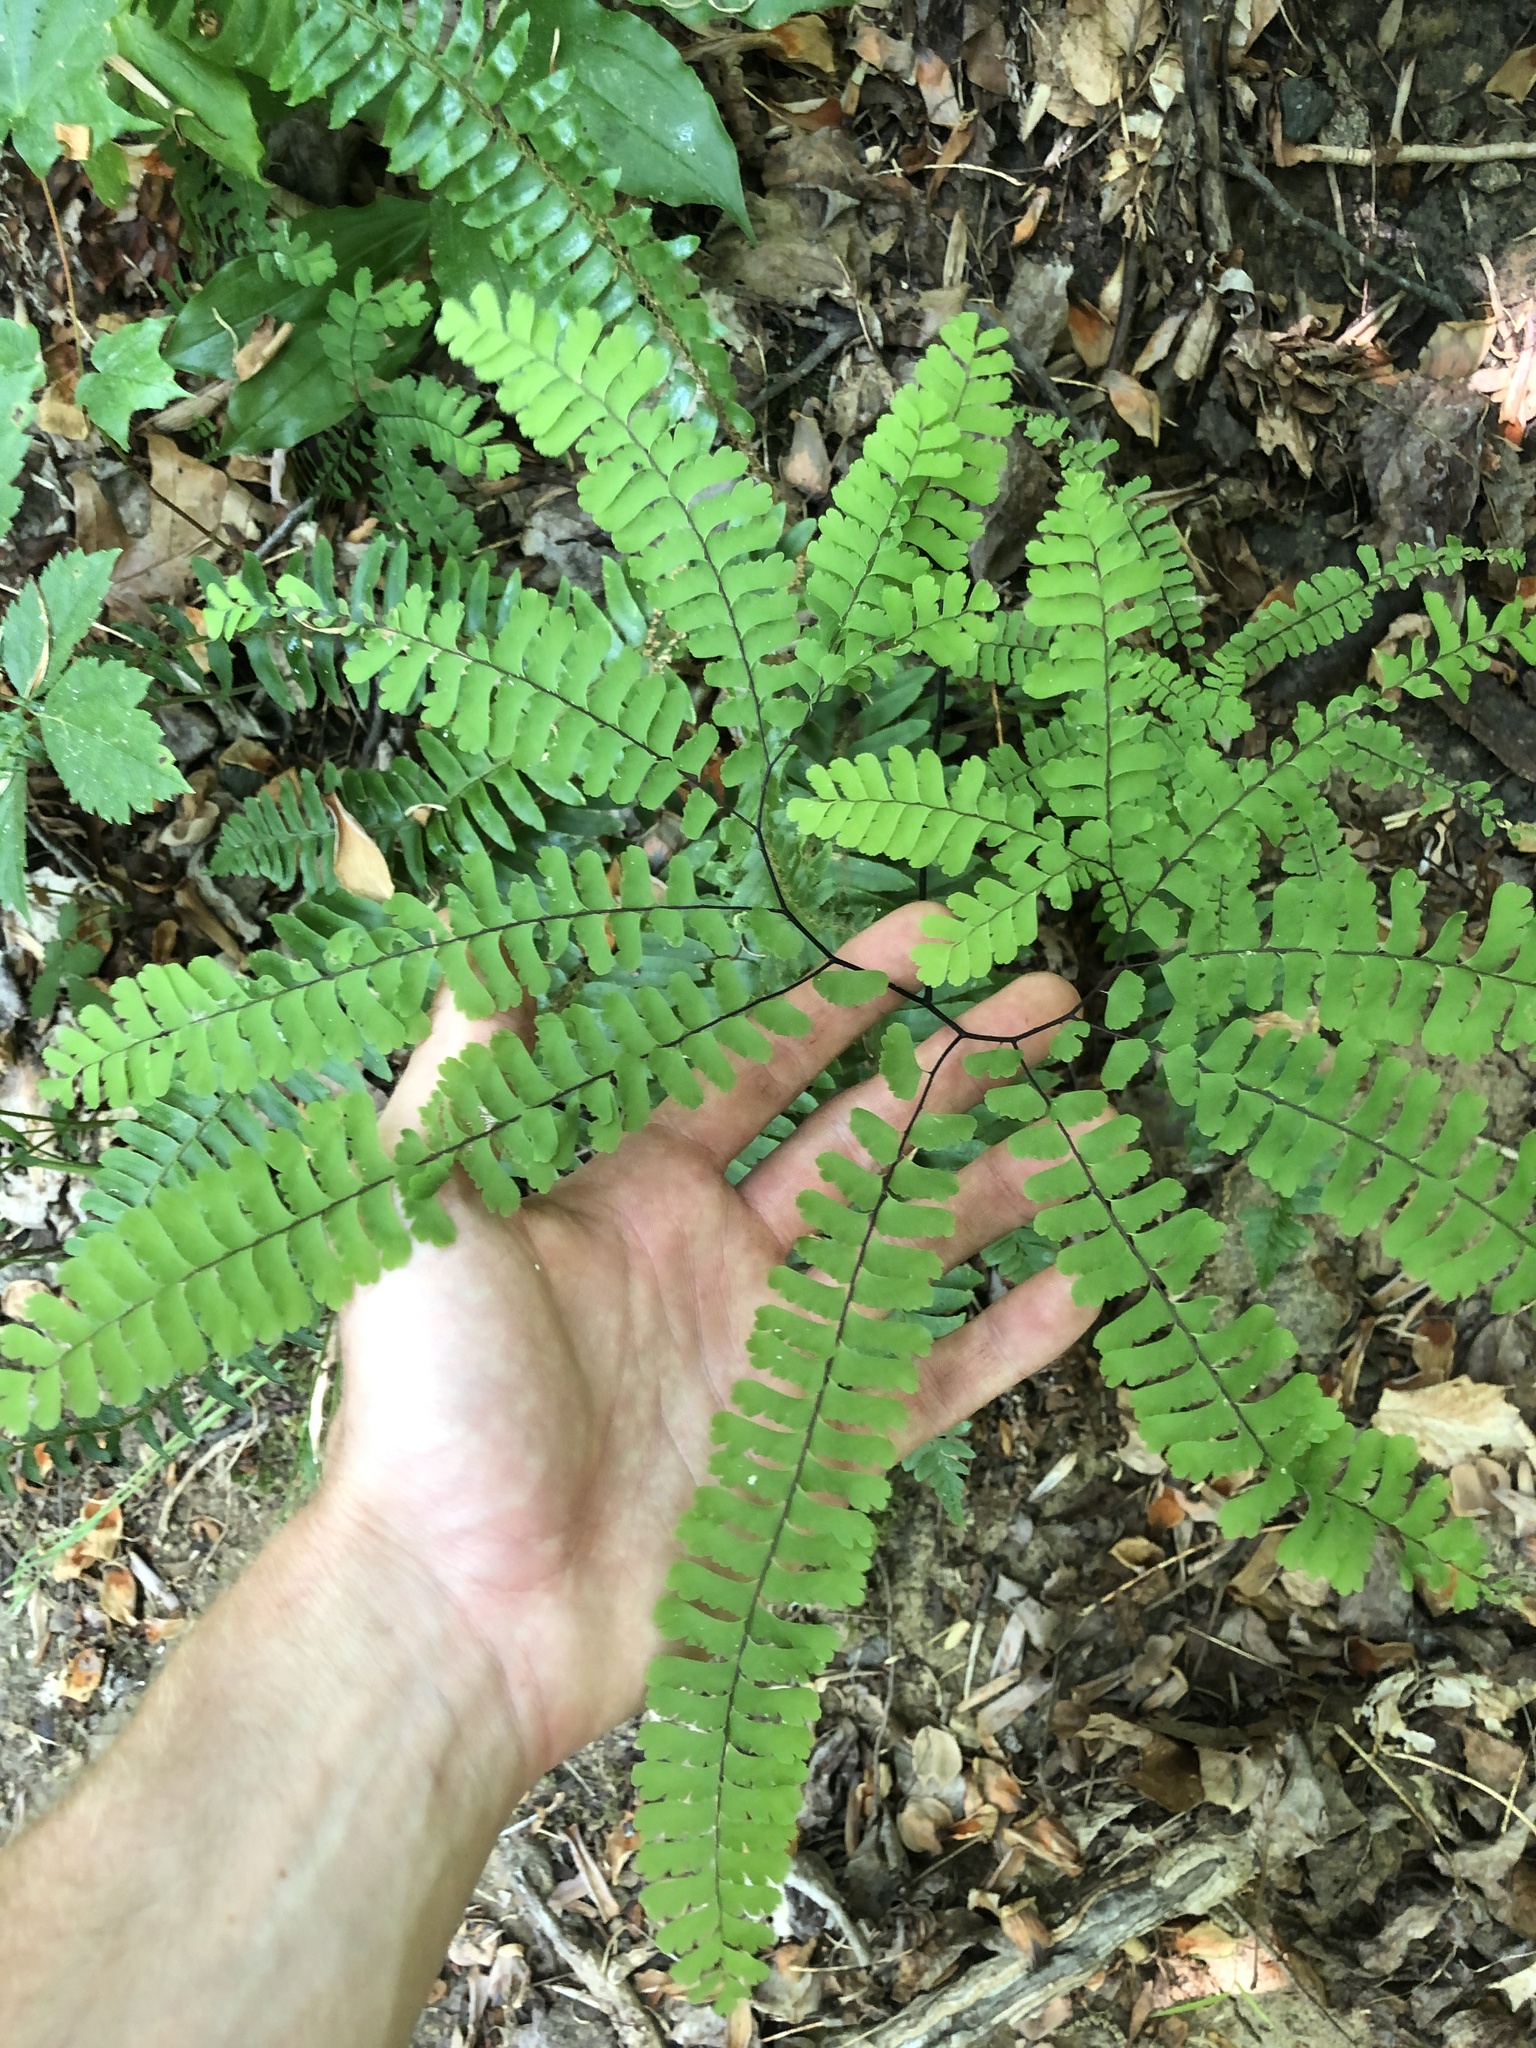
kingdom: Plantae
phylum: Tracheophyta
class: Polypodiopsida
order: Polypodiales
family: Pteridaceae
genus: Adiantum
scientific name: Adiantum pedatum
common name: Five-finger fern
